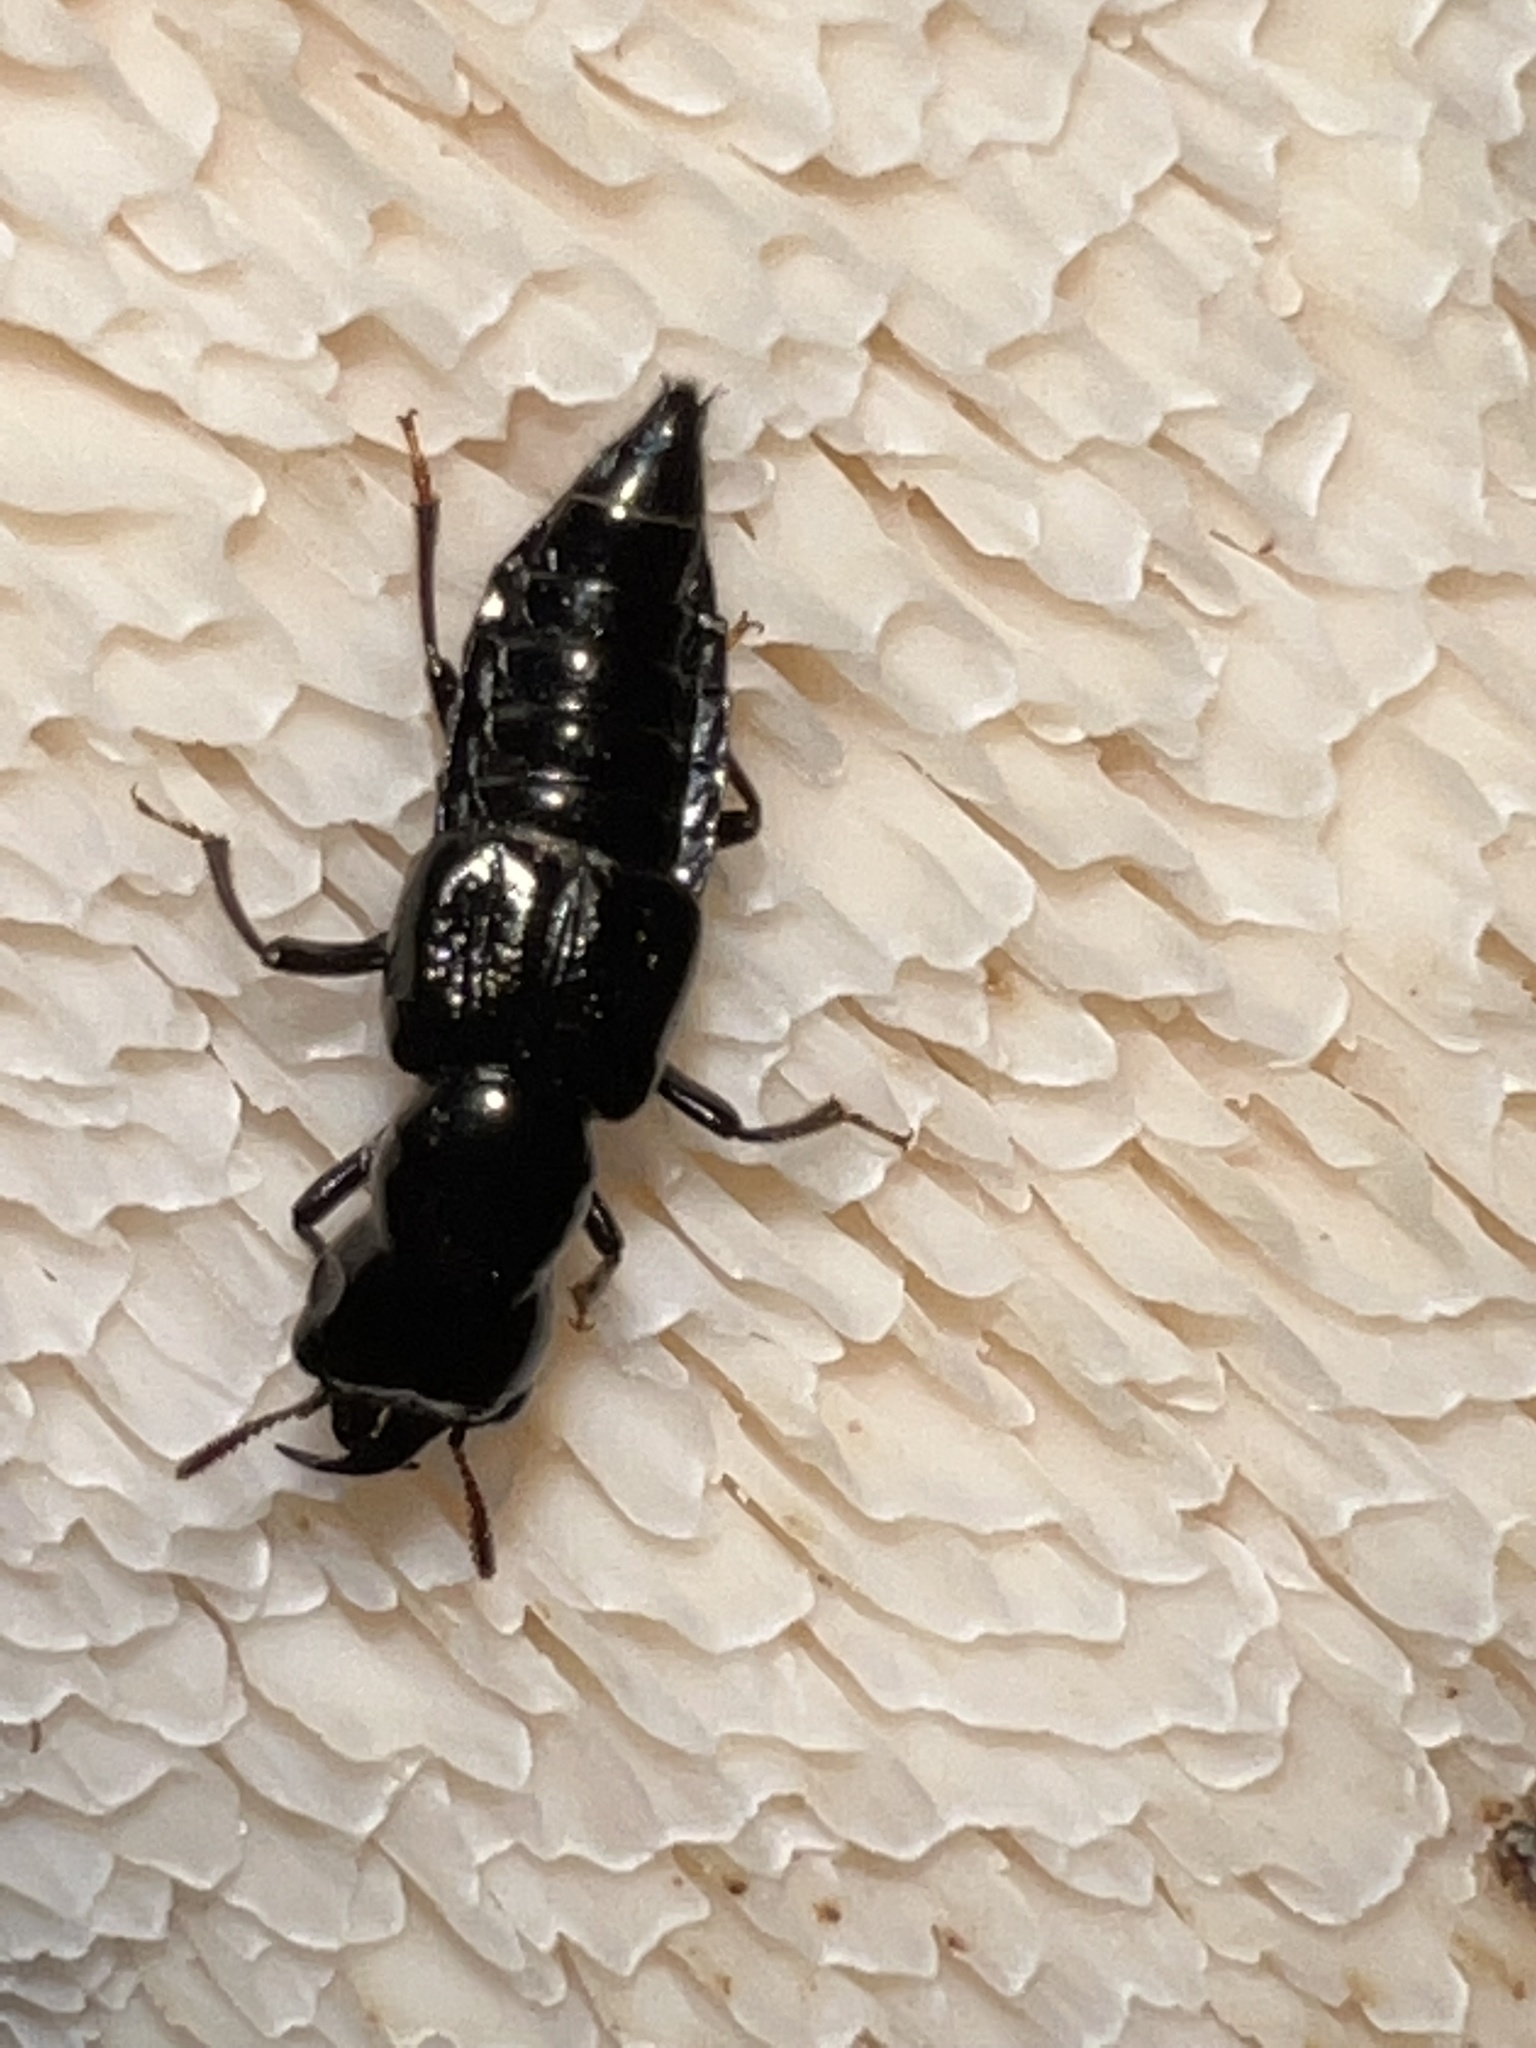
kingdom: Animalia
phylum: Arthropoda
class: Insecta
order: Coleoptera
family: Staphylinidae
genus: Oxyporus
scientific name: Oxyporus stygicus
